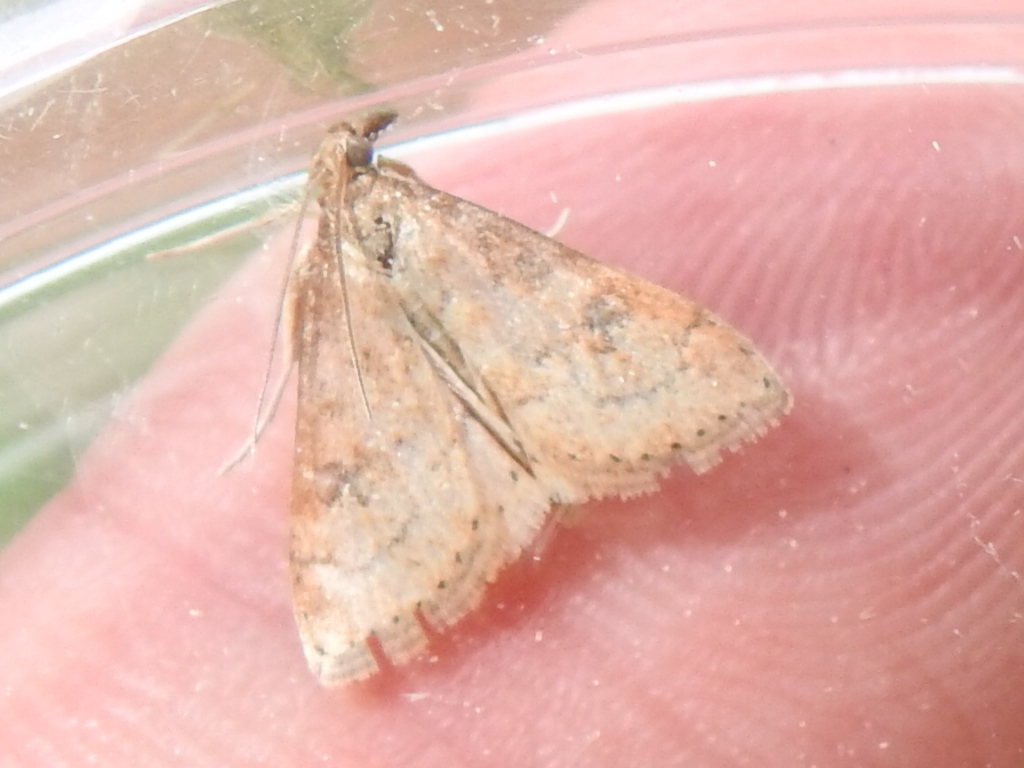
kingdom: Animalia
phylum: Arthropoda
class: Insecta
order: Lepidoptera
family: Crambidae
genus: Udea
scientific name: Udea rubigalis
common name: Celery leaftier moth
